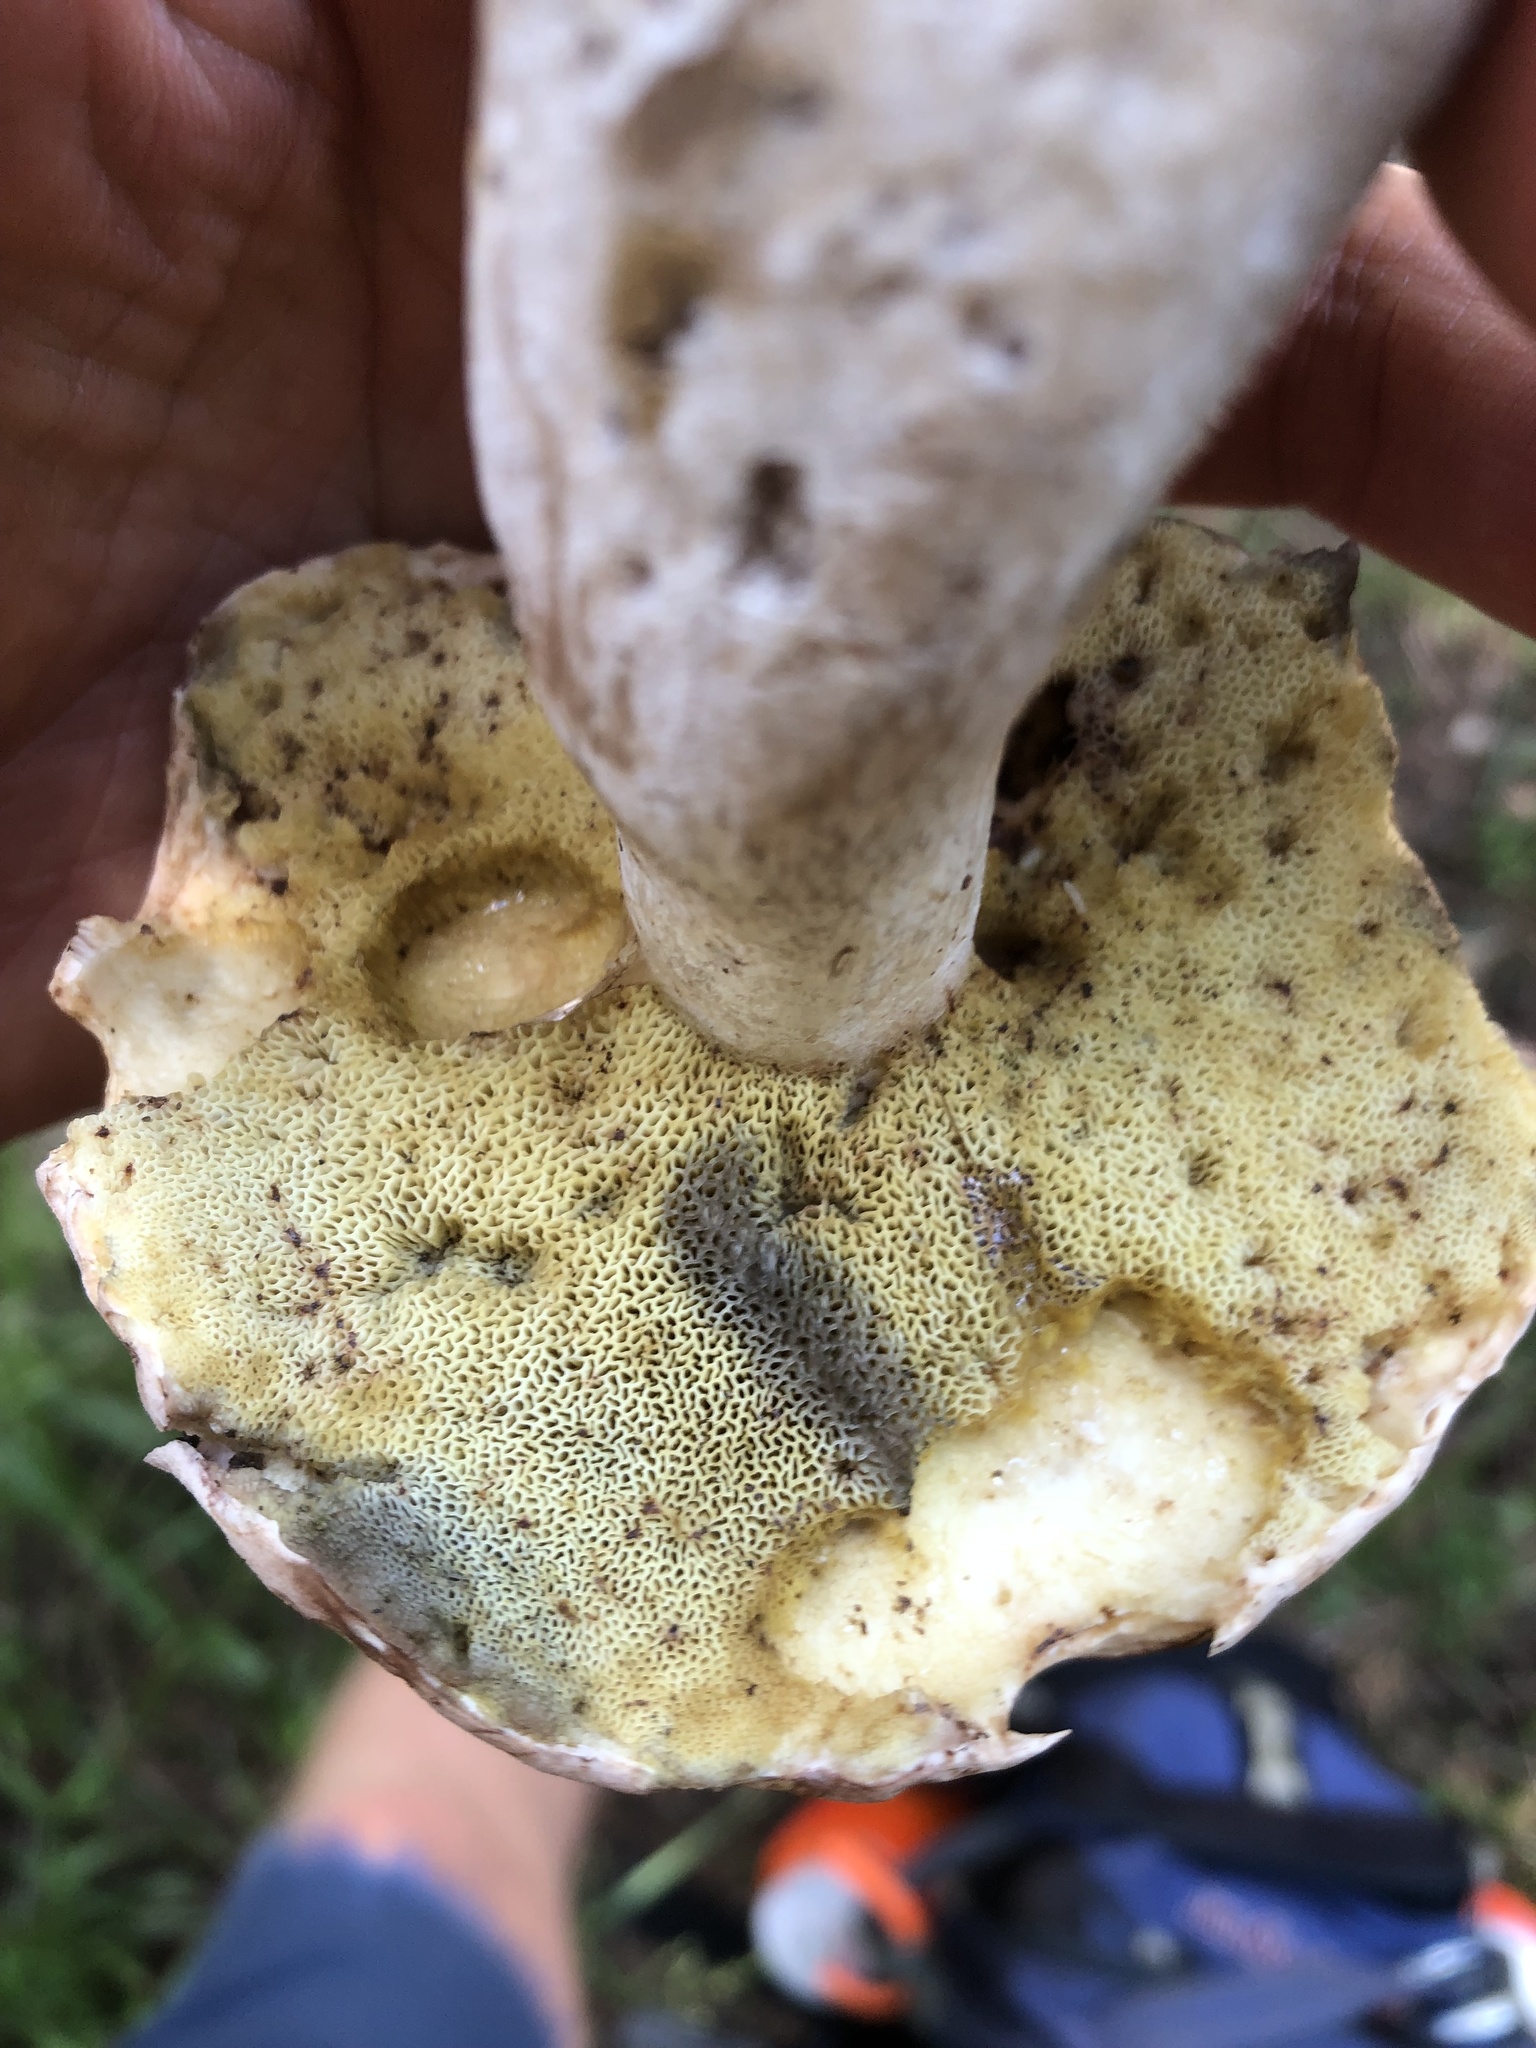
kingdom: Fungi
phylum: Basidiomycota
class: Agaricomycetes
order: Boletales
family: Boletaceae
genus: Imleria
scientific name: Imleria pallida
